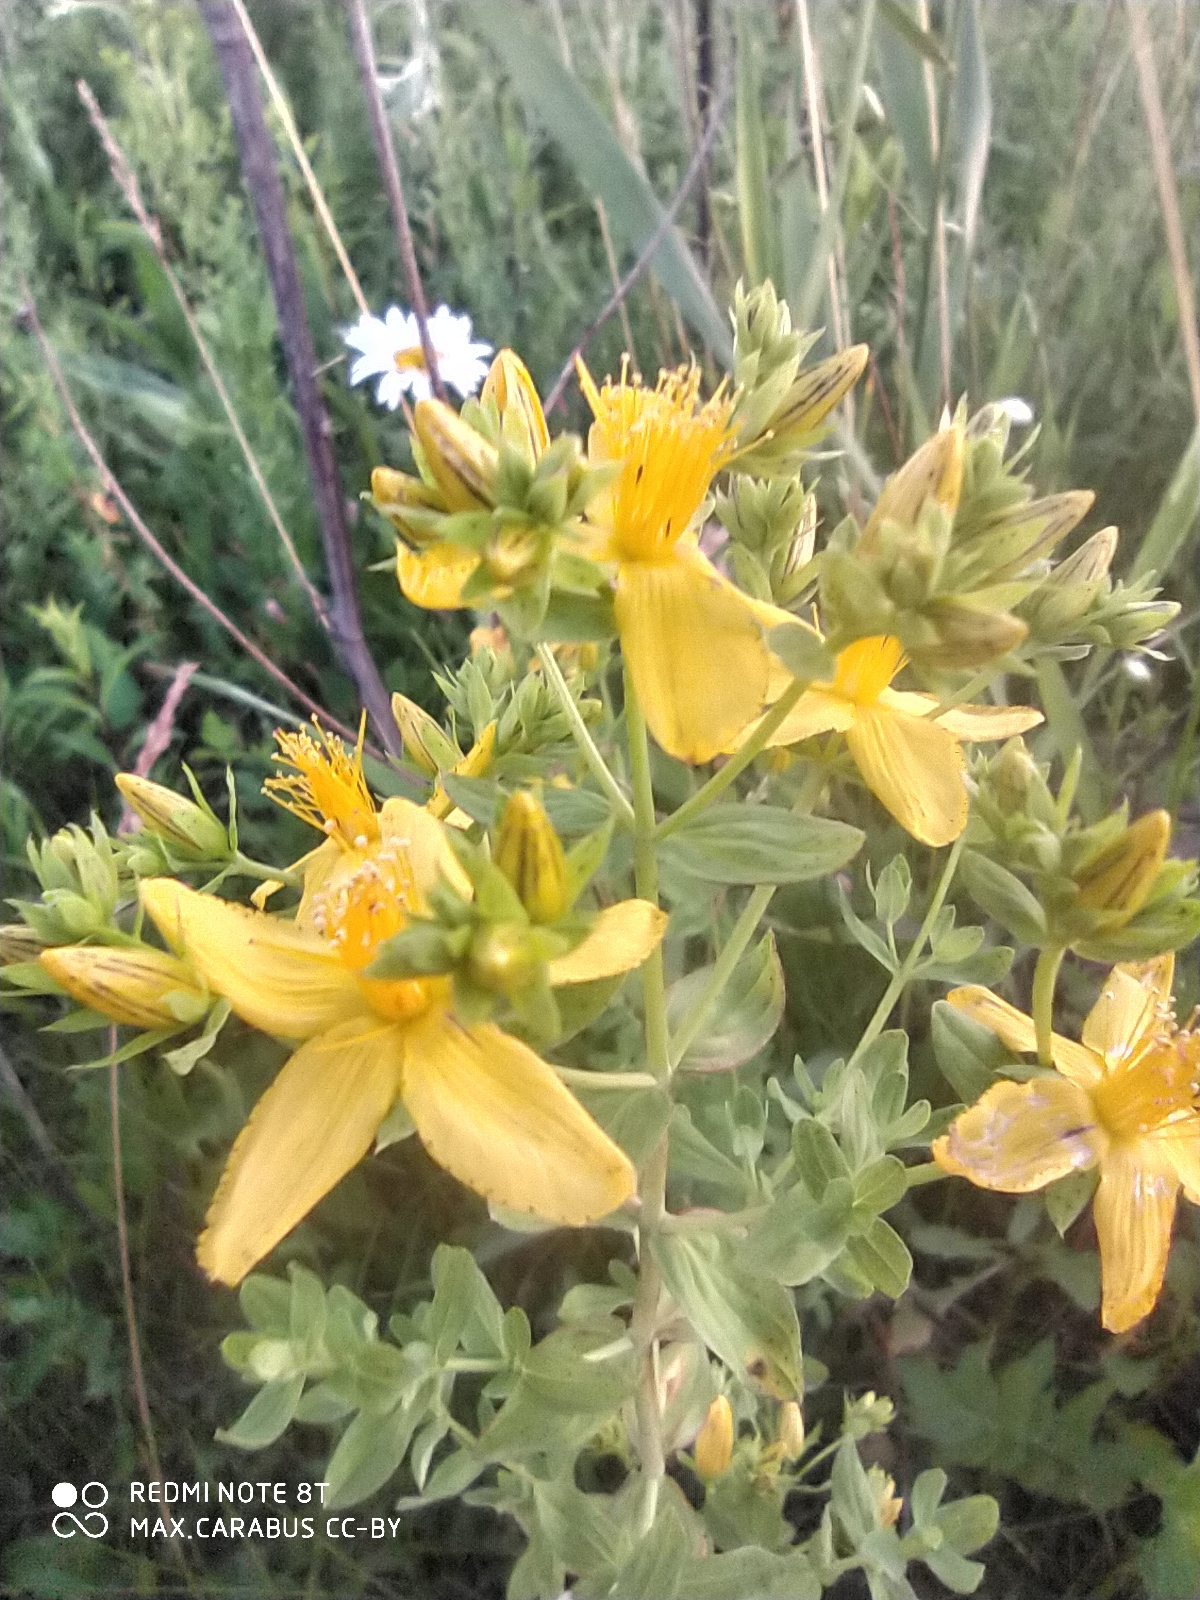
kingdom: Plantae
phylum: Tracheophyta
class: Magnoliopsida
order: Malpighiales
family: Hypericaceae
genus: Hypericum
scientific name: Hypericum perforatum
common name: Common st. johnswort
